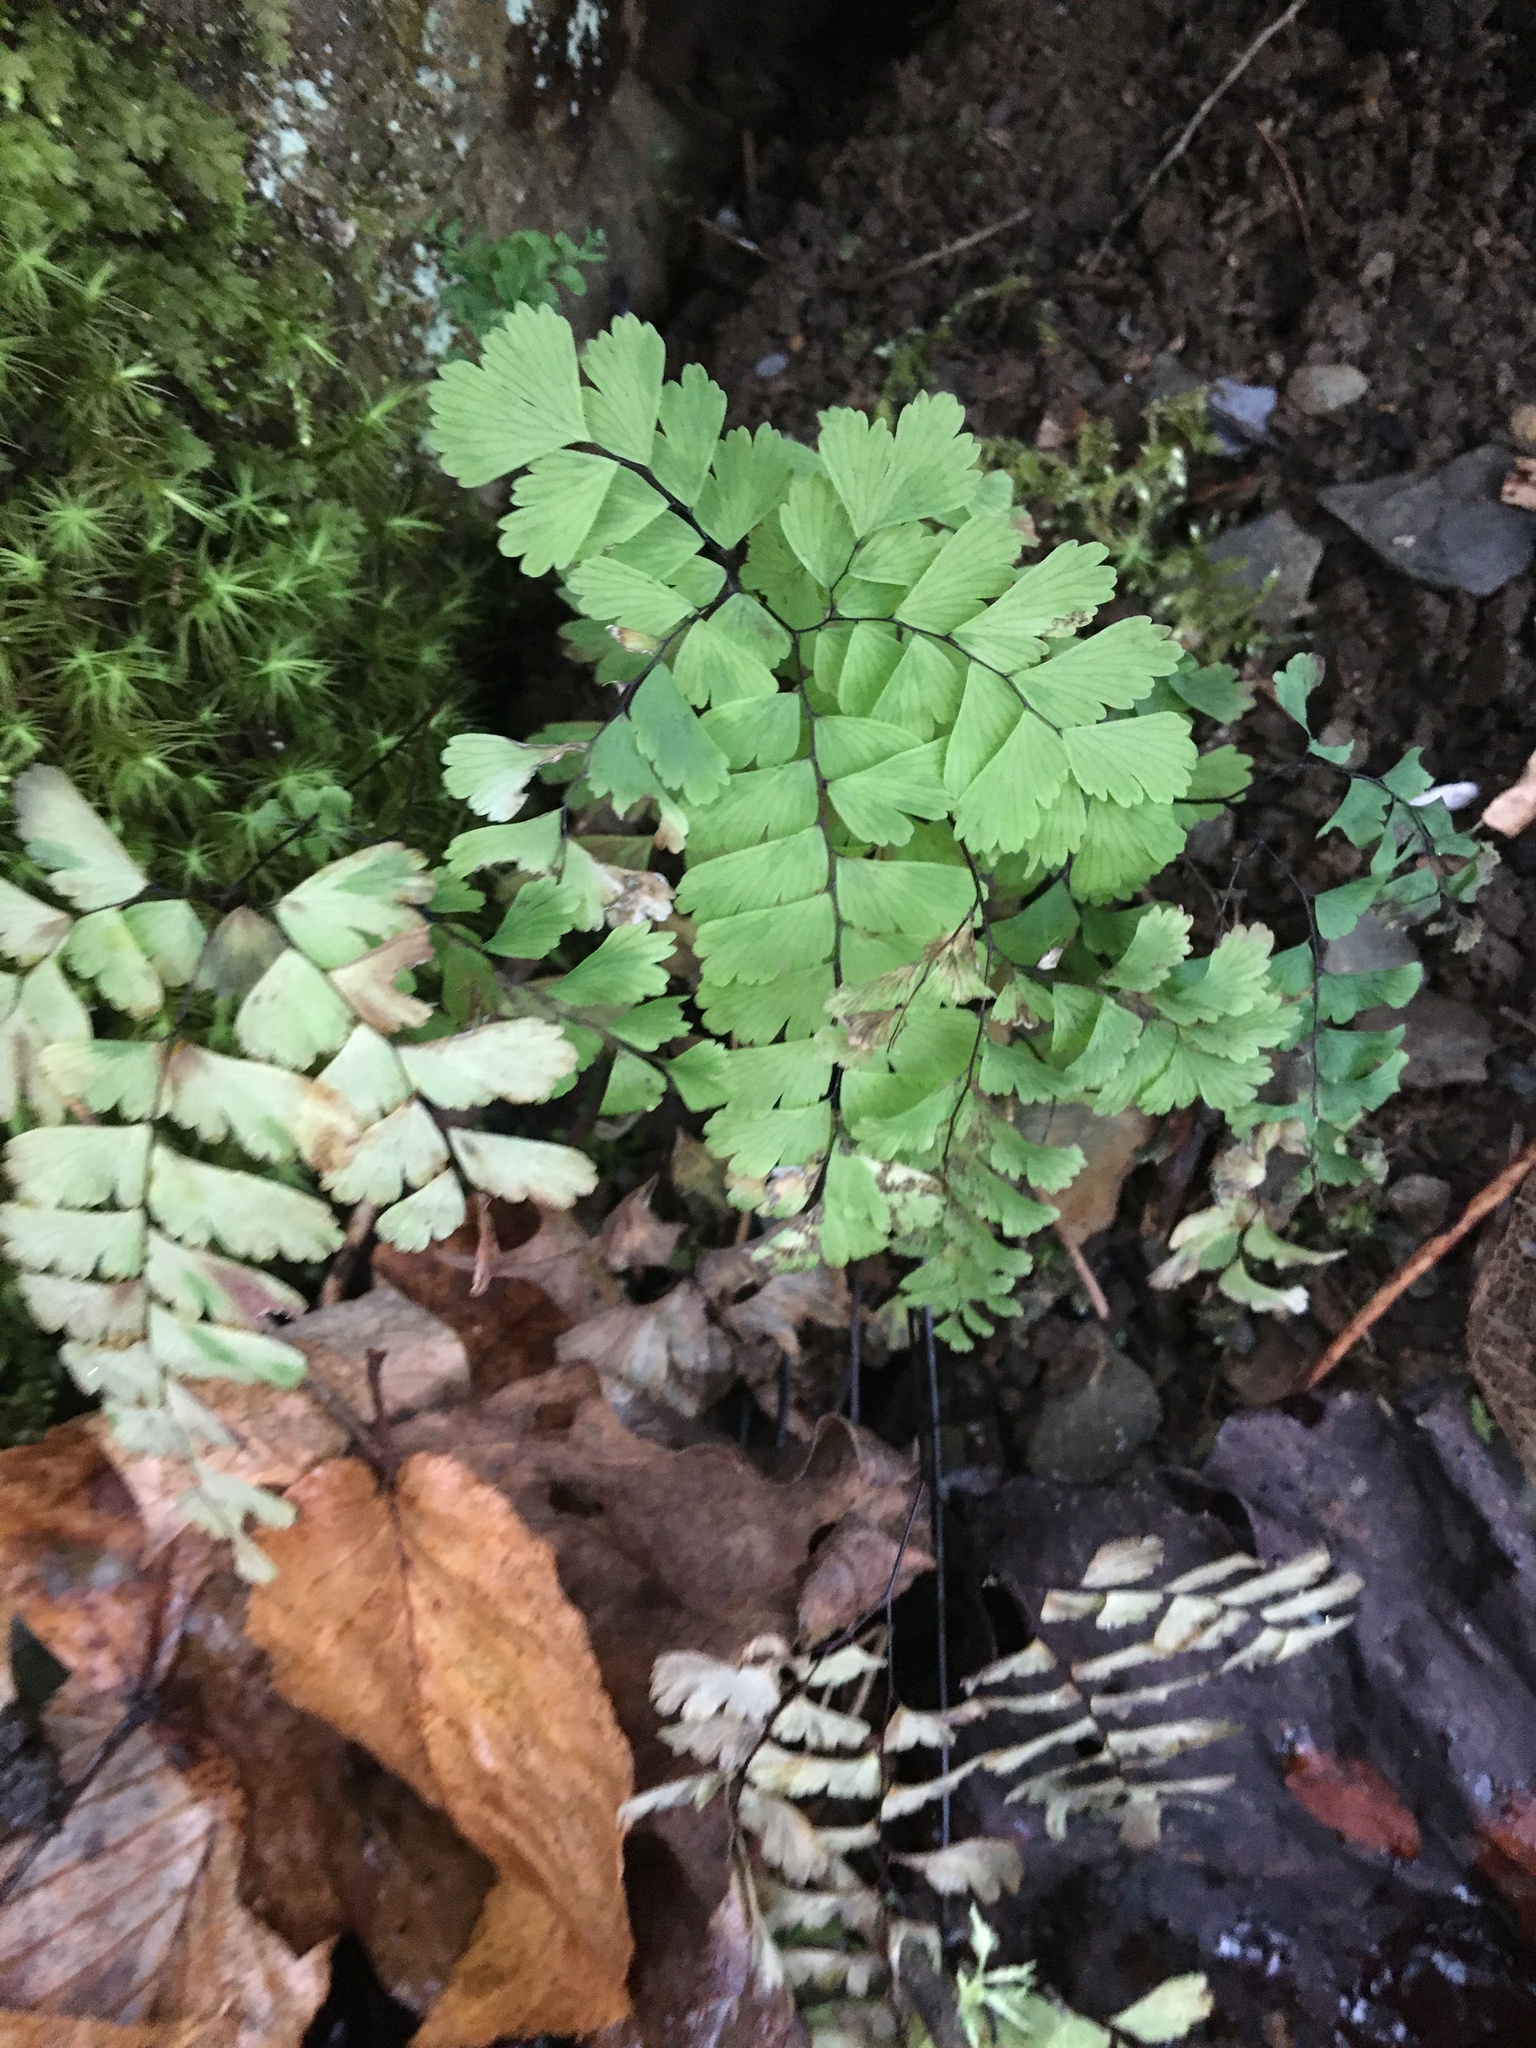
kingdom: Plantae
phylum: Tracheophyta
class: Polypodiopsida
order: Polypodiales
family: Pteridaceae
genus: Adiantum
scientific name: Adiantum pedatum
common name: Five-finger fern
